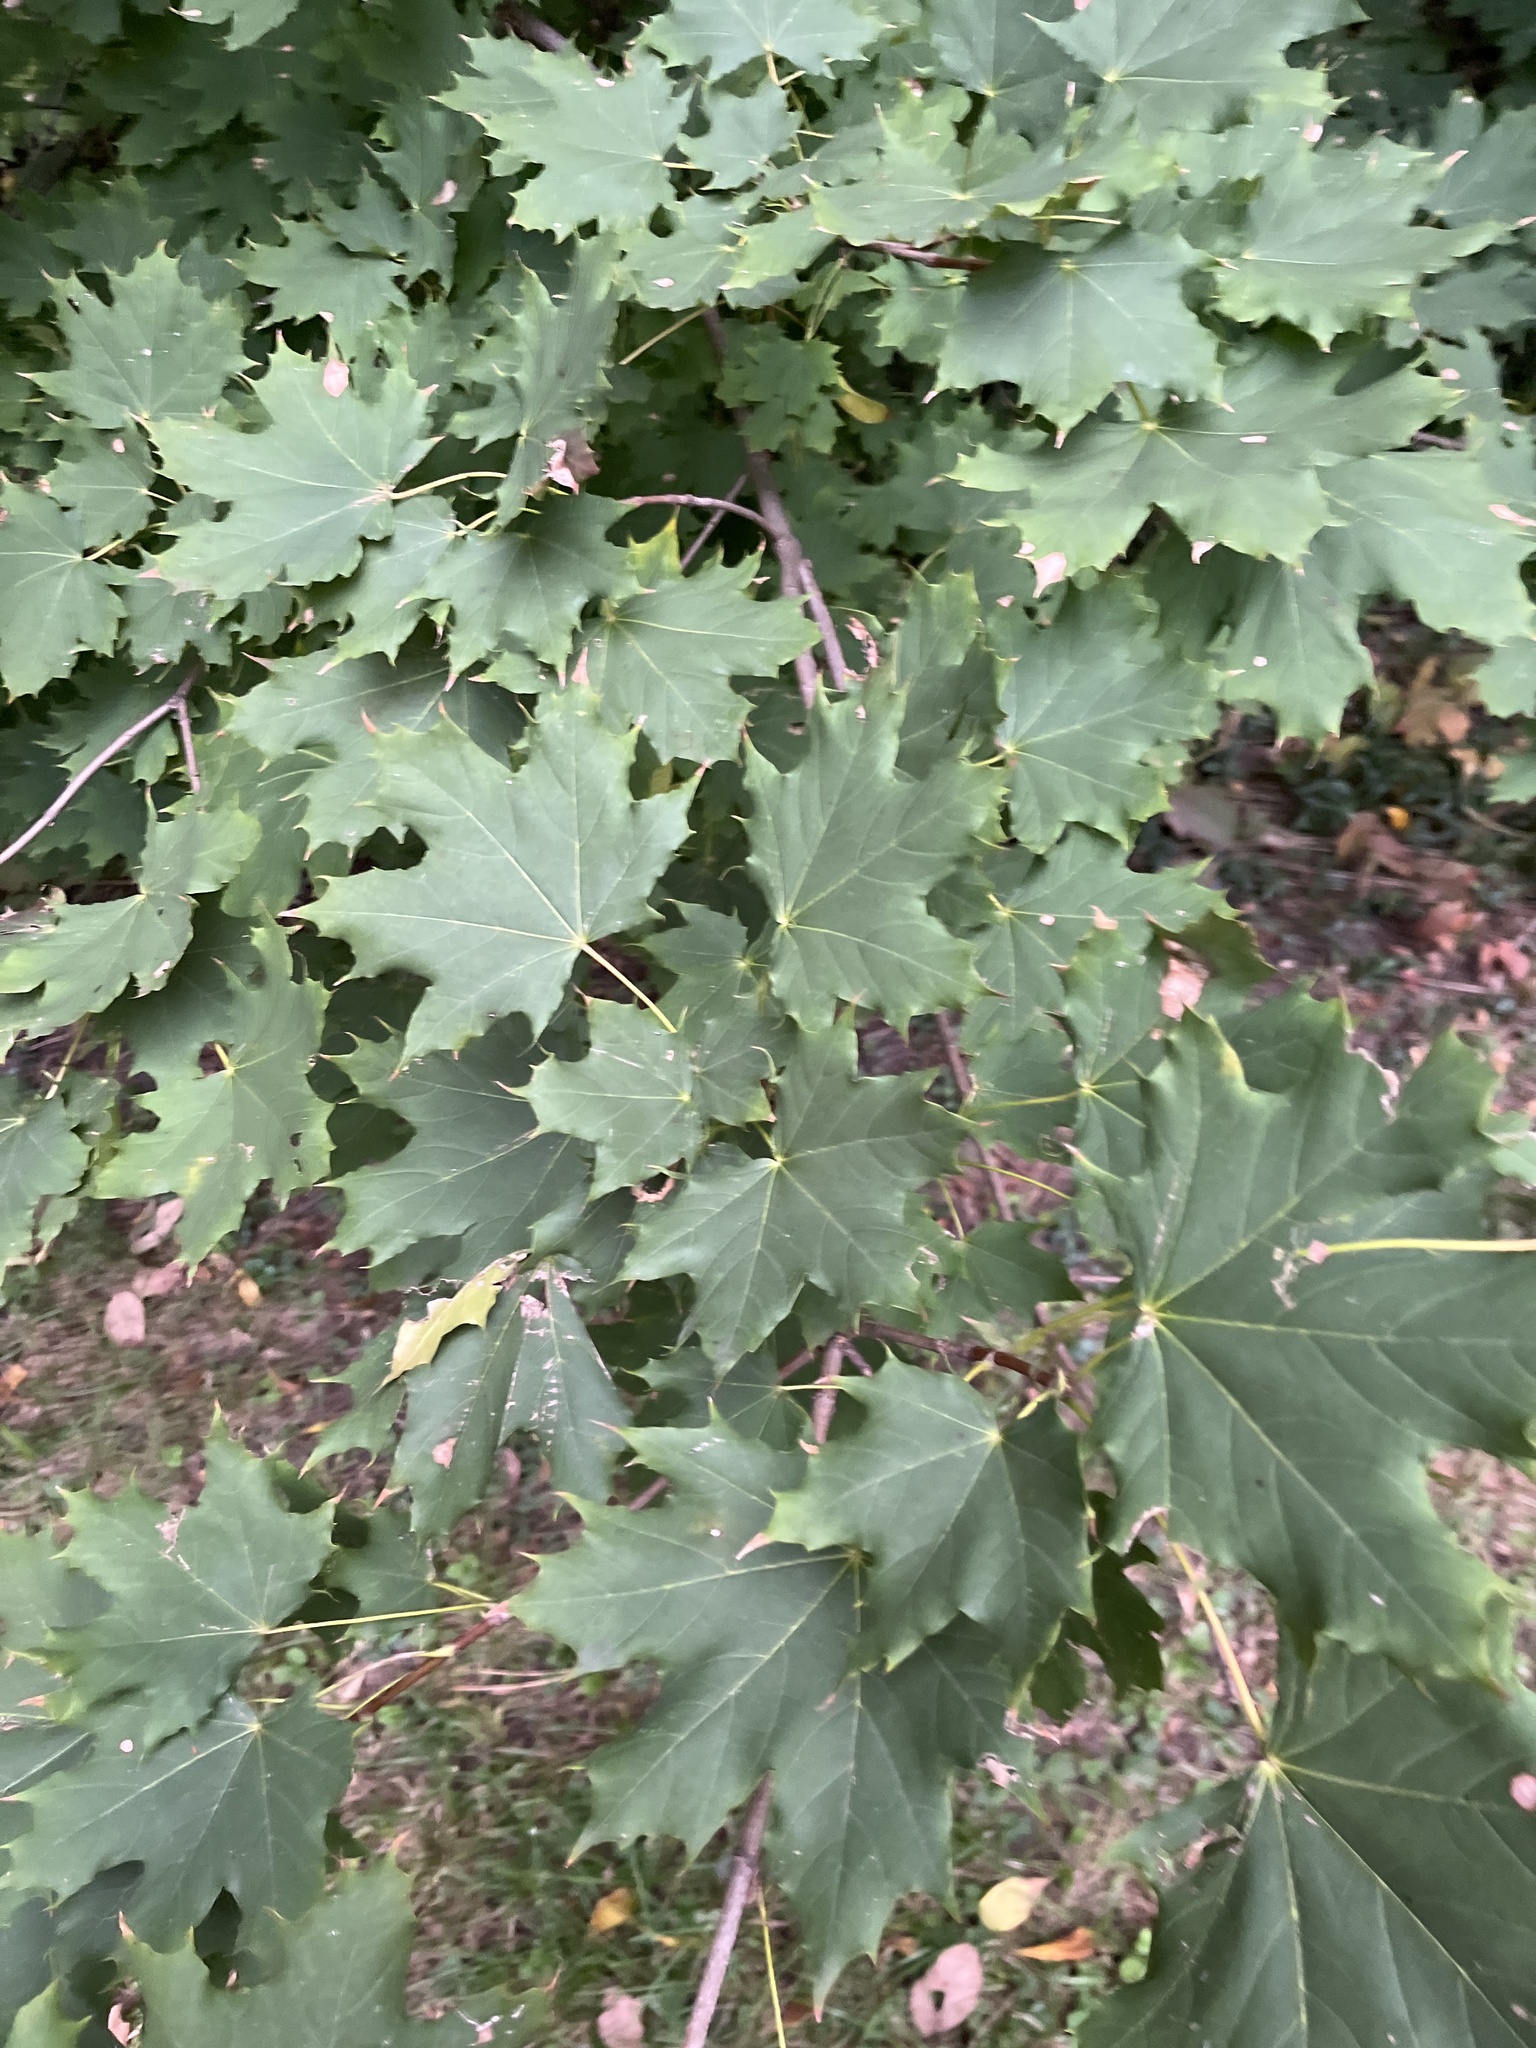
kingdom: Plantae
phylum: Tracheophyta
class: Magnoliopsida
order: Sapindales
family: Sapindaceae
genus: Acer
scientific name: Acer platanoides
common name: Norway maple
